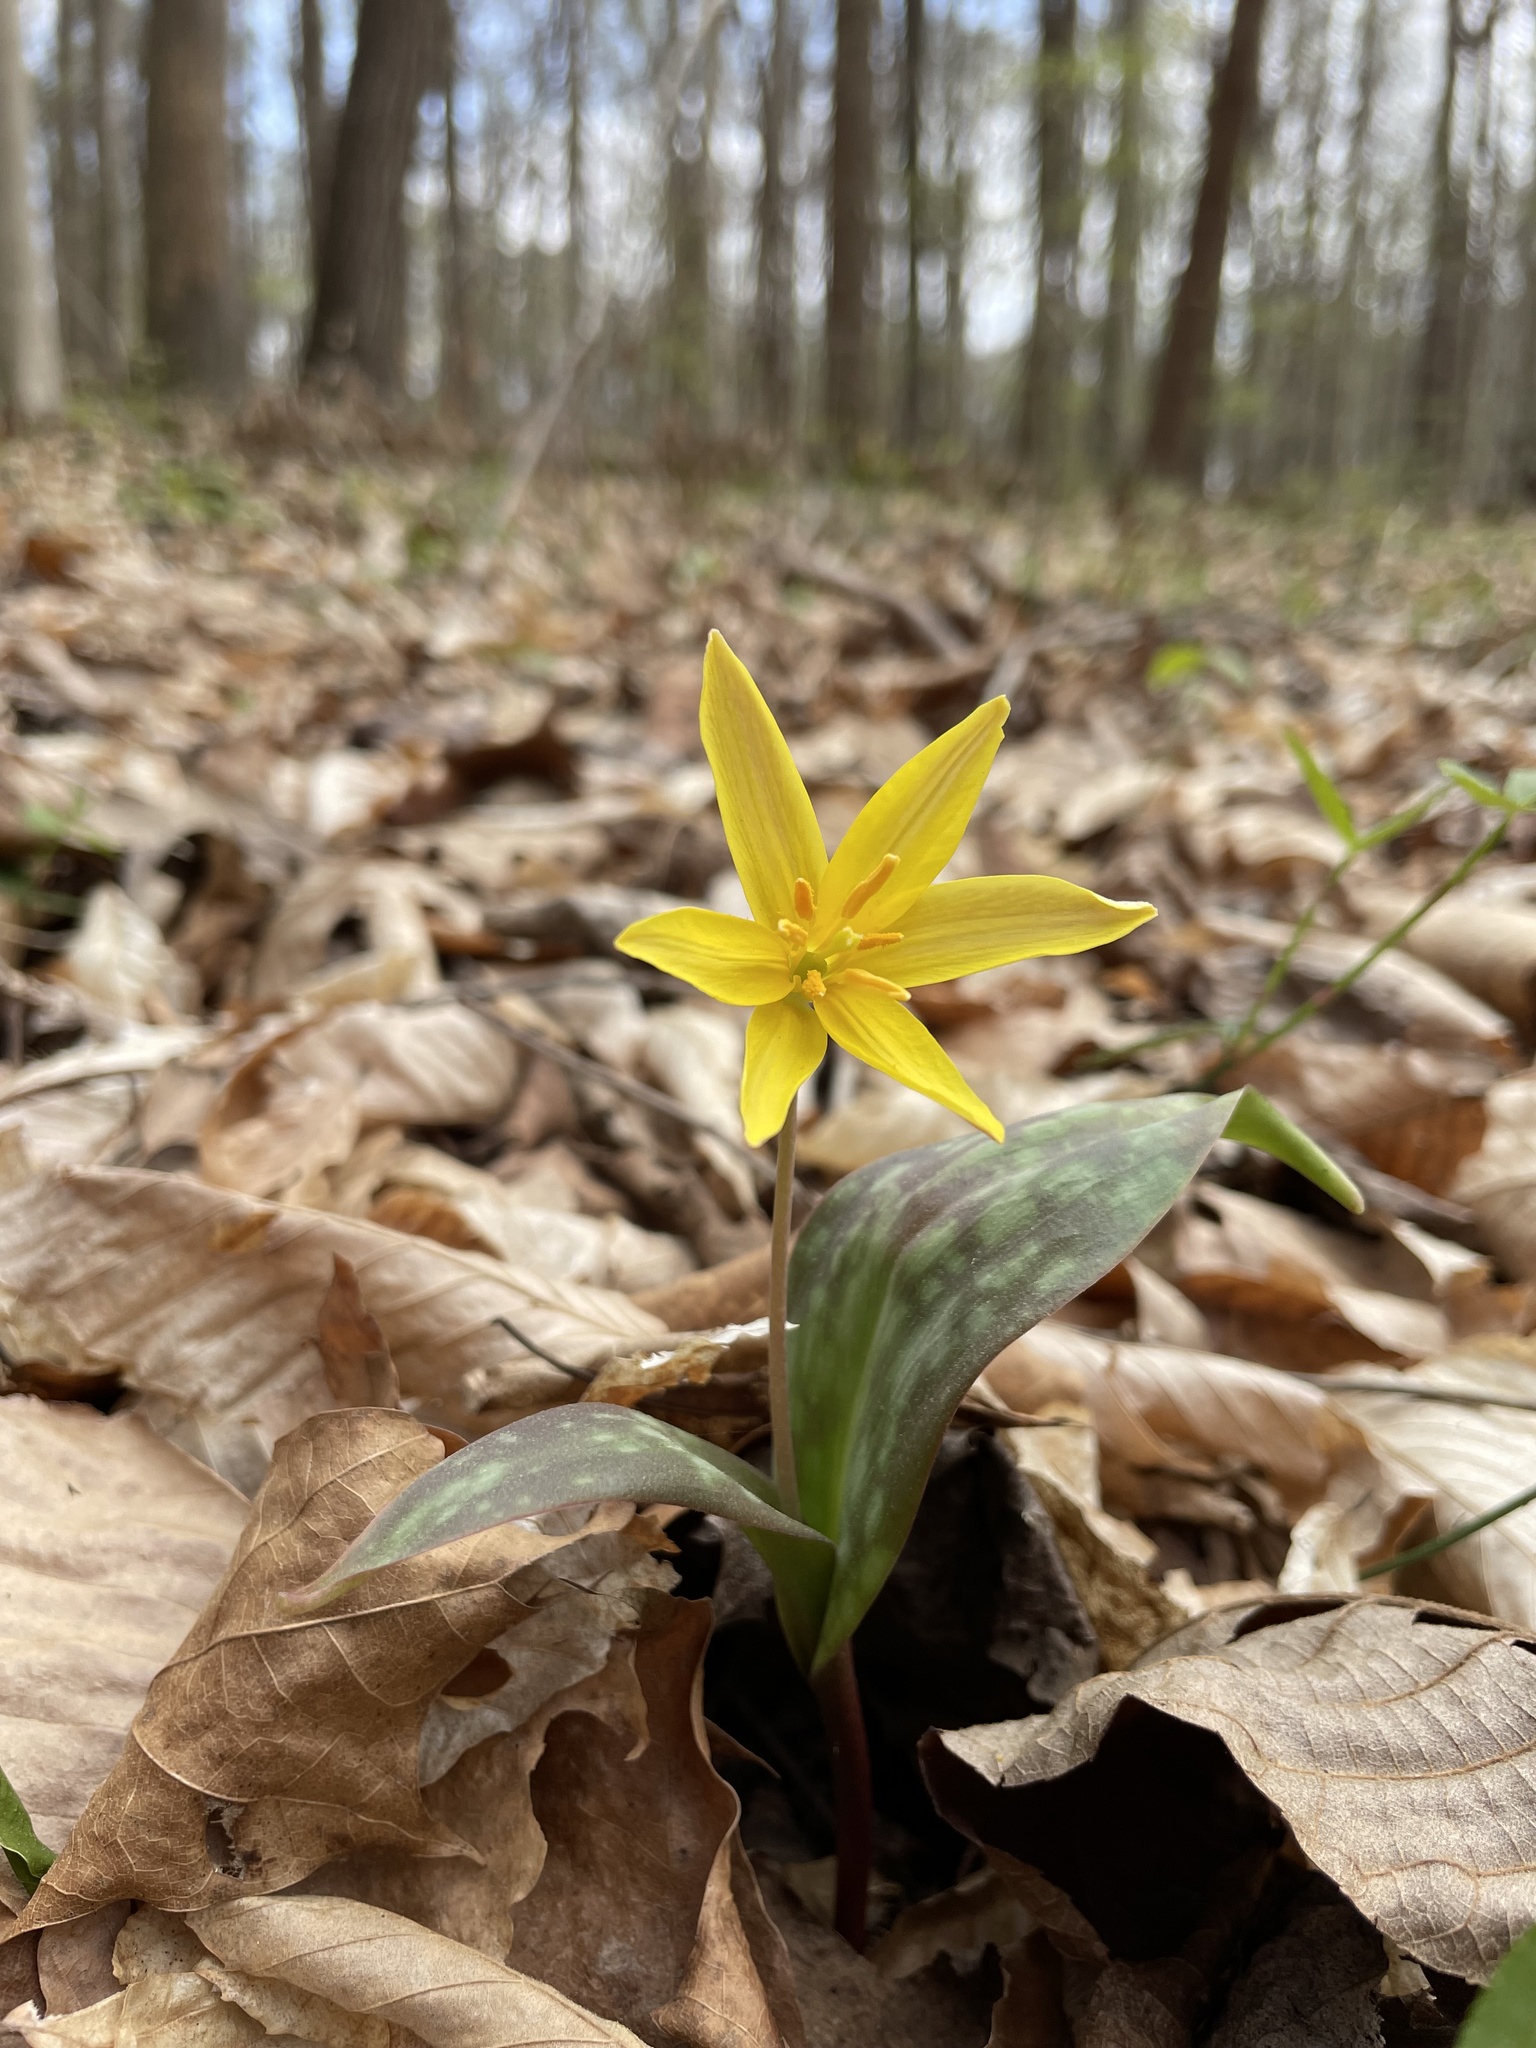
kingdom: Plantae
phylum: Tracheophyta
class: Liliopsida
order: Liliales
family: Liliaceae
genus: Erythronium
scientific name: Erythronium americanum
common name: Yellow adder's-tongue
